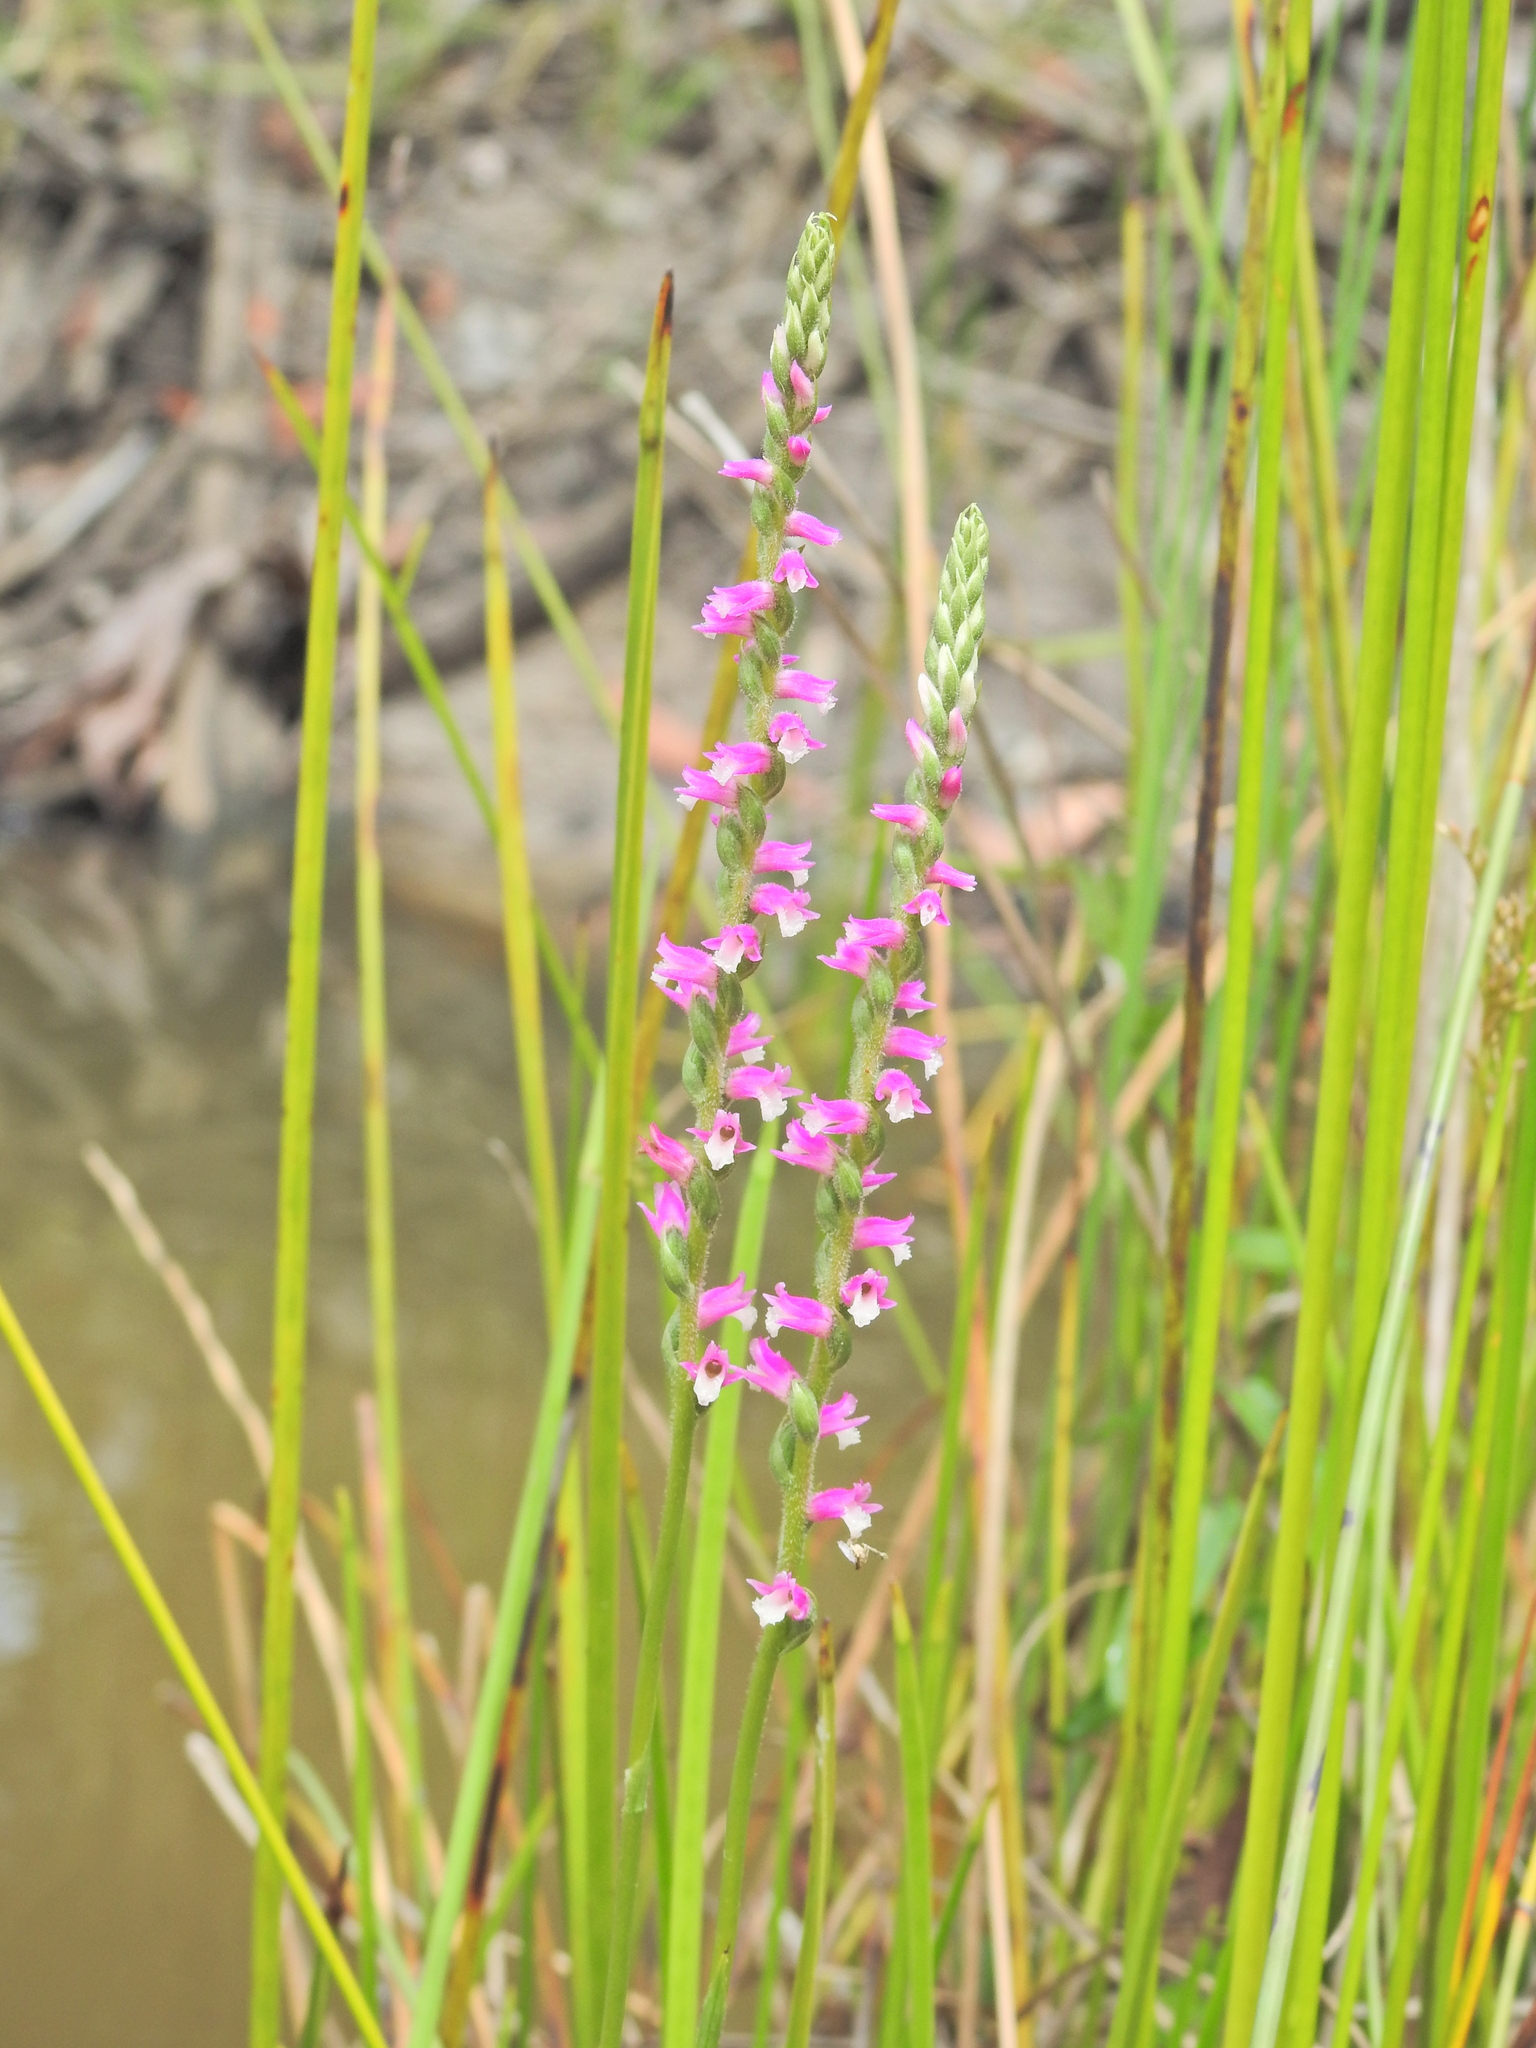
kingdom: Plantae
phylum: Tracheophyta
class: Liliopsida
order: Asparagales
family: Orchidaceae
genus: Spiranthes
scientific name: Spiranthes australis
